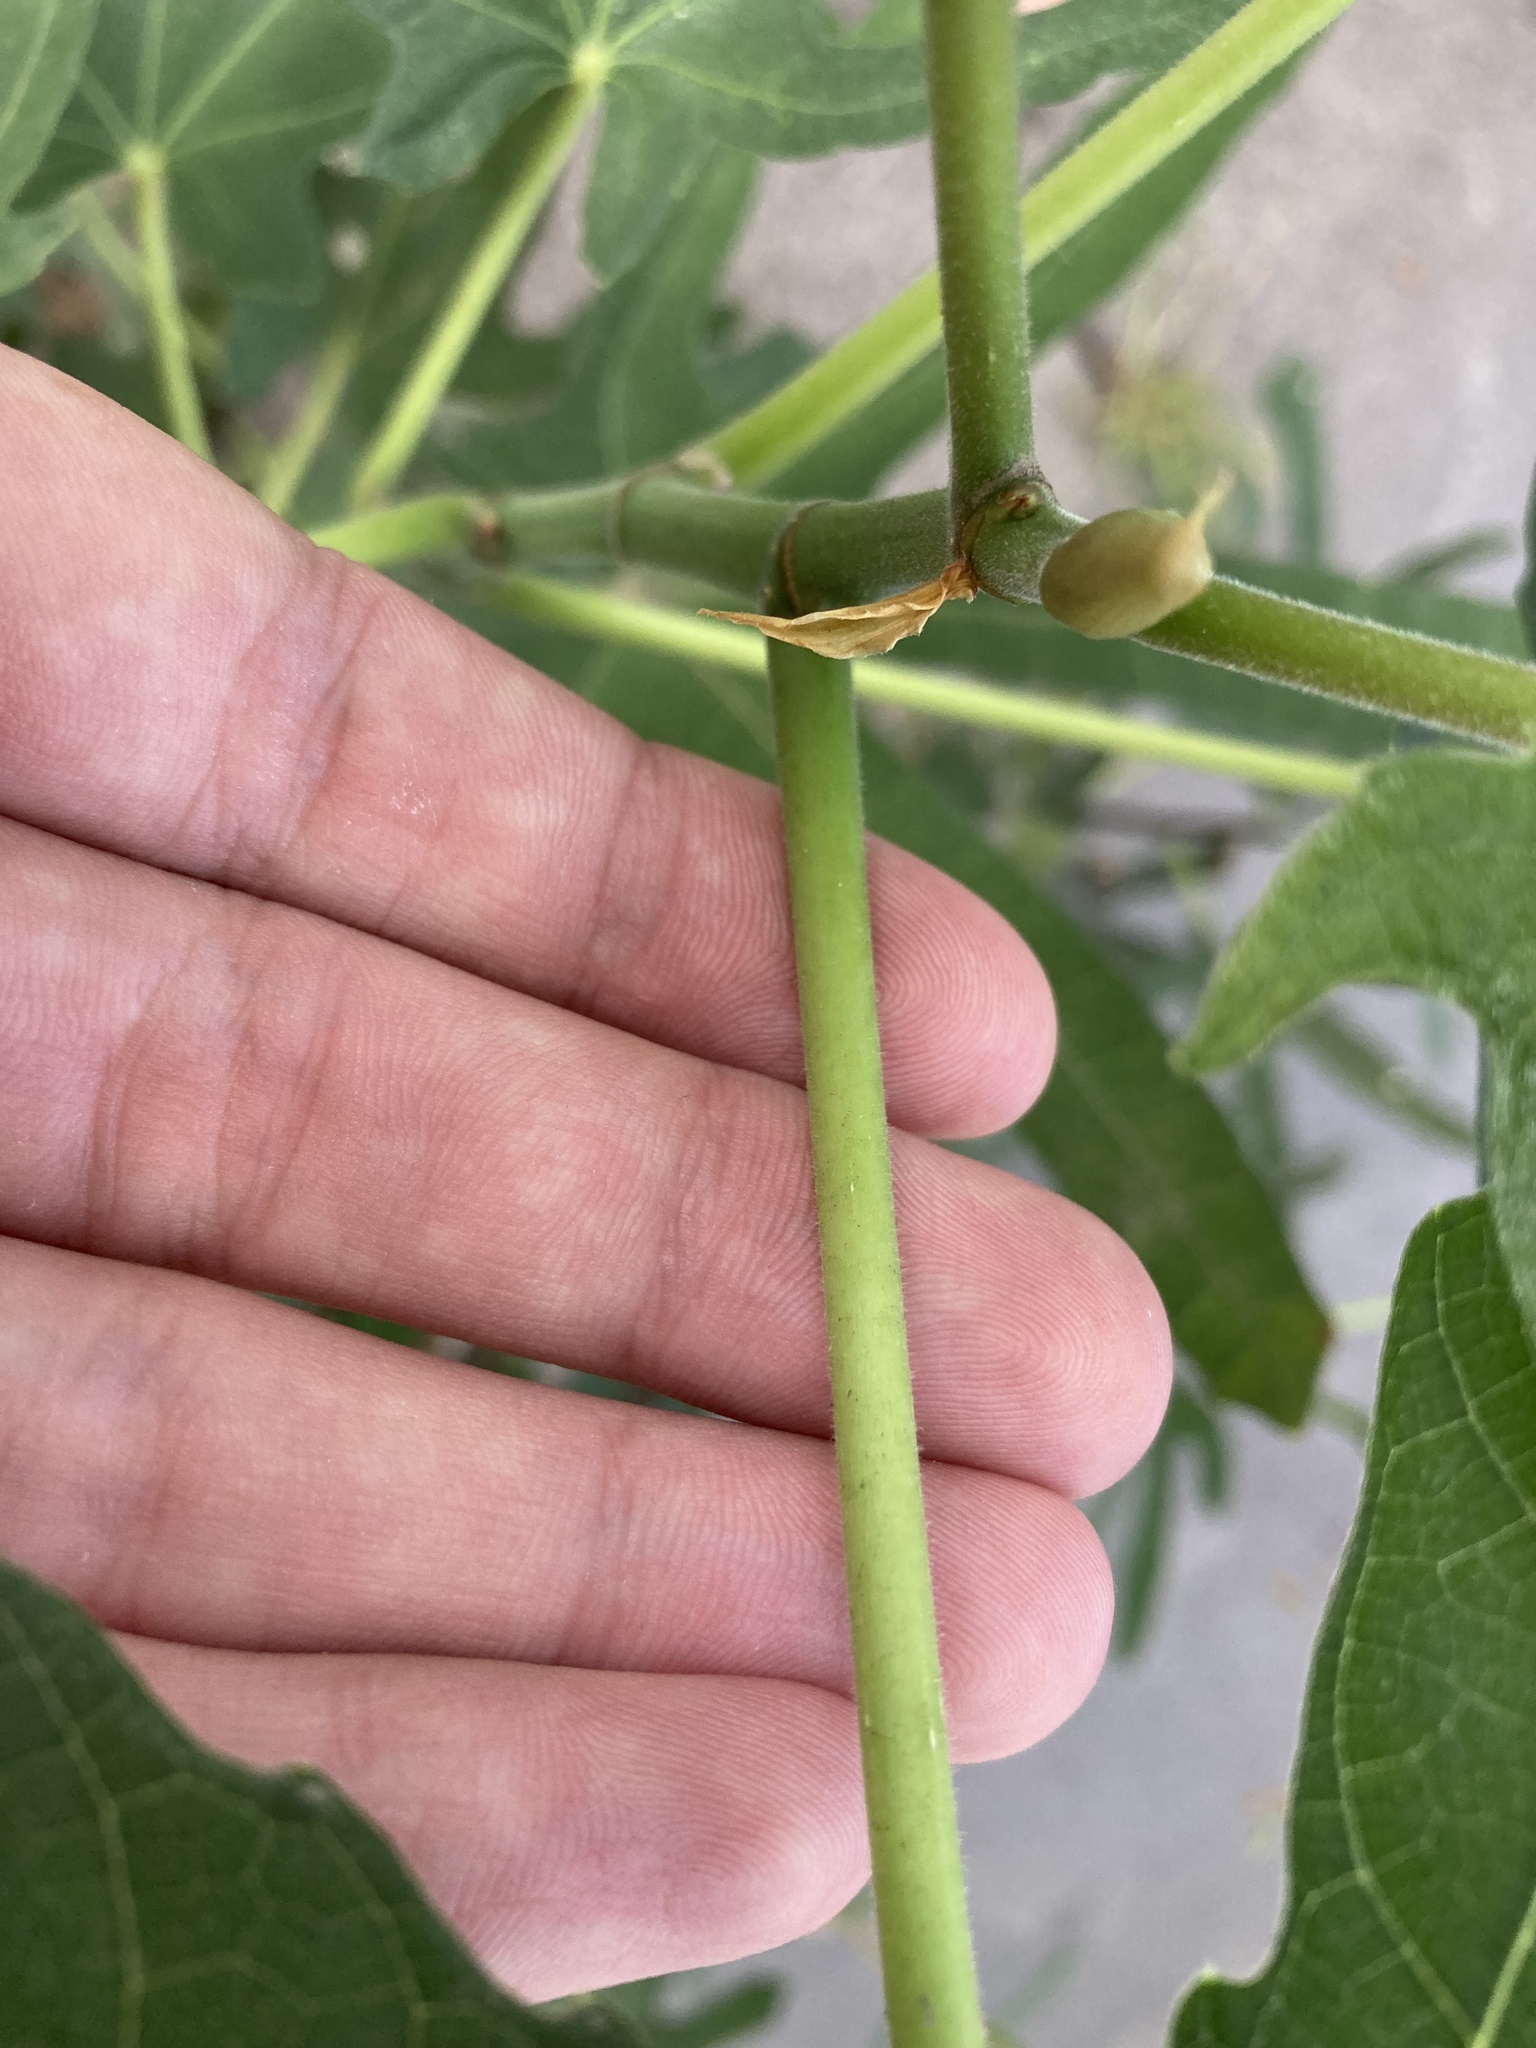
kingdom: Plantae
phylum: Tracheophyta
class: Magnoliopsida
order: Rosales
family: Moraceae
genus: Ficus
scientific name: Ficus carica
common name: Fig
